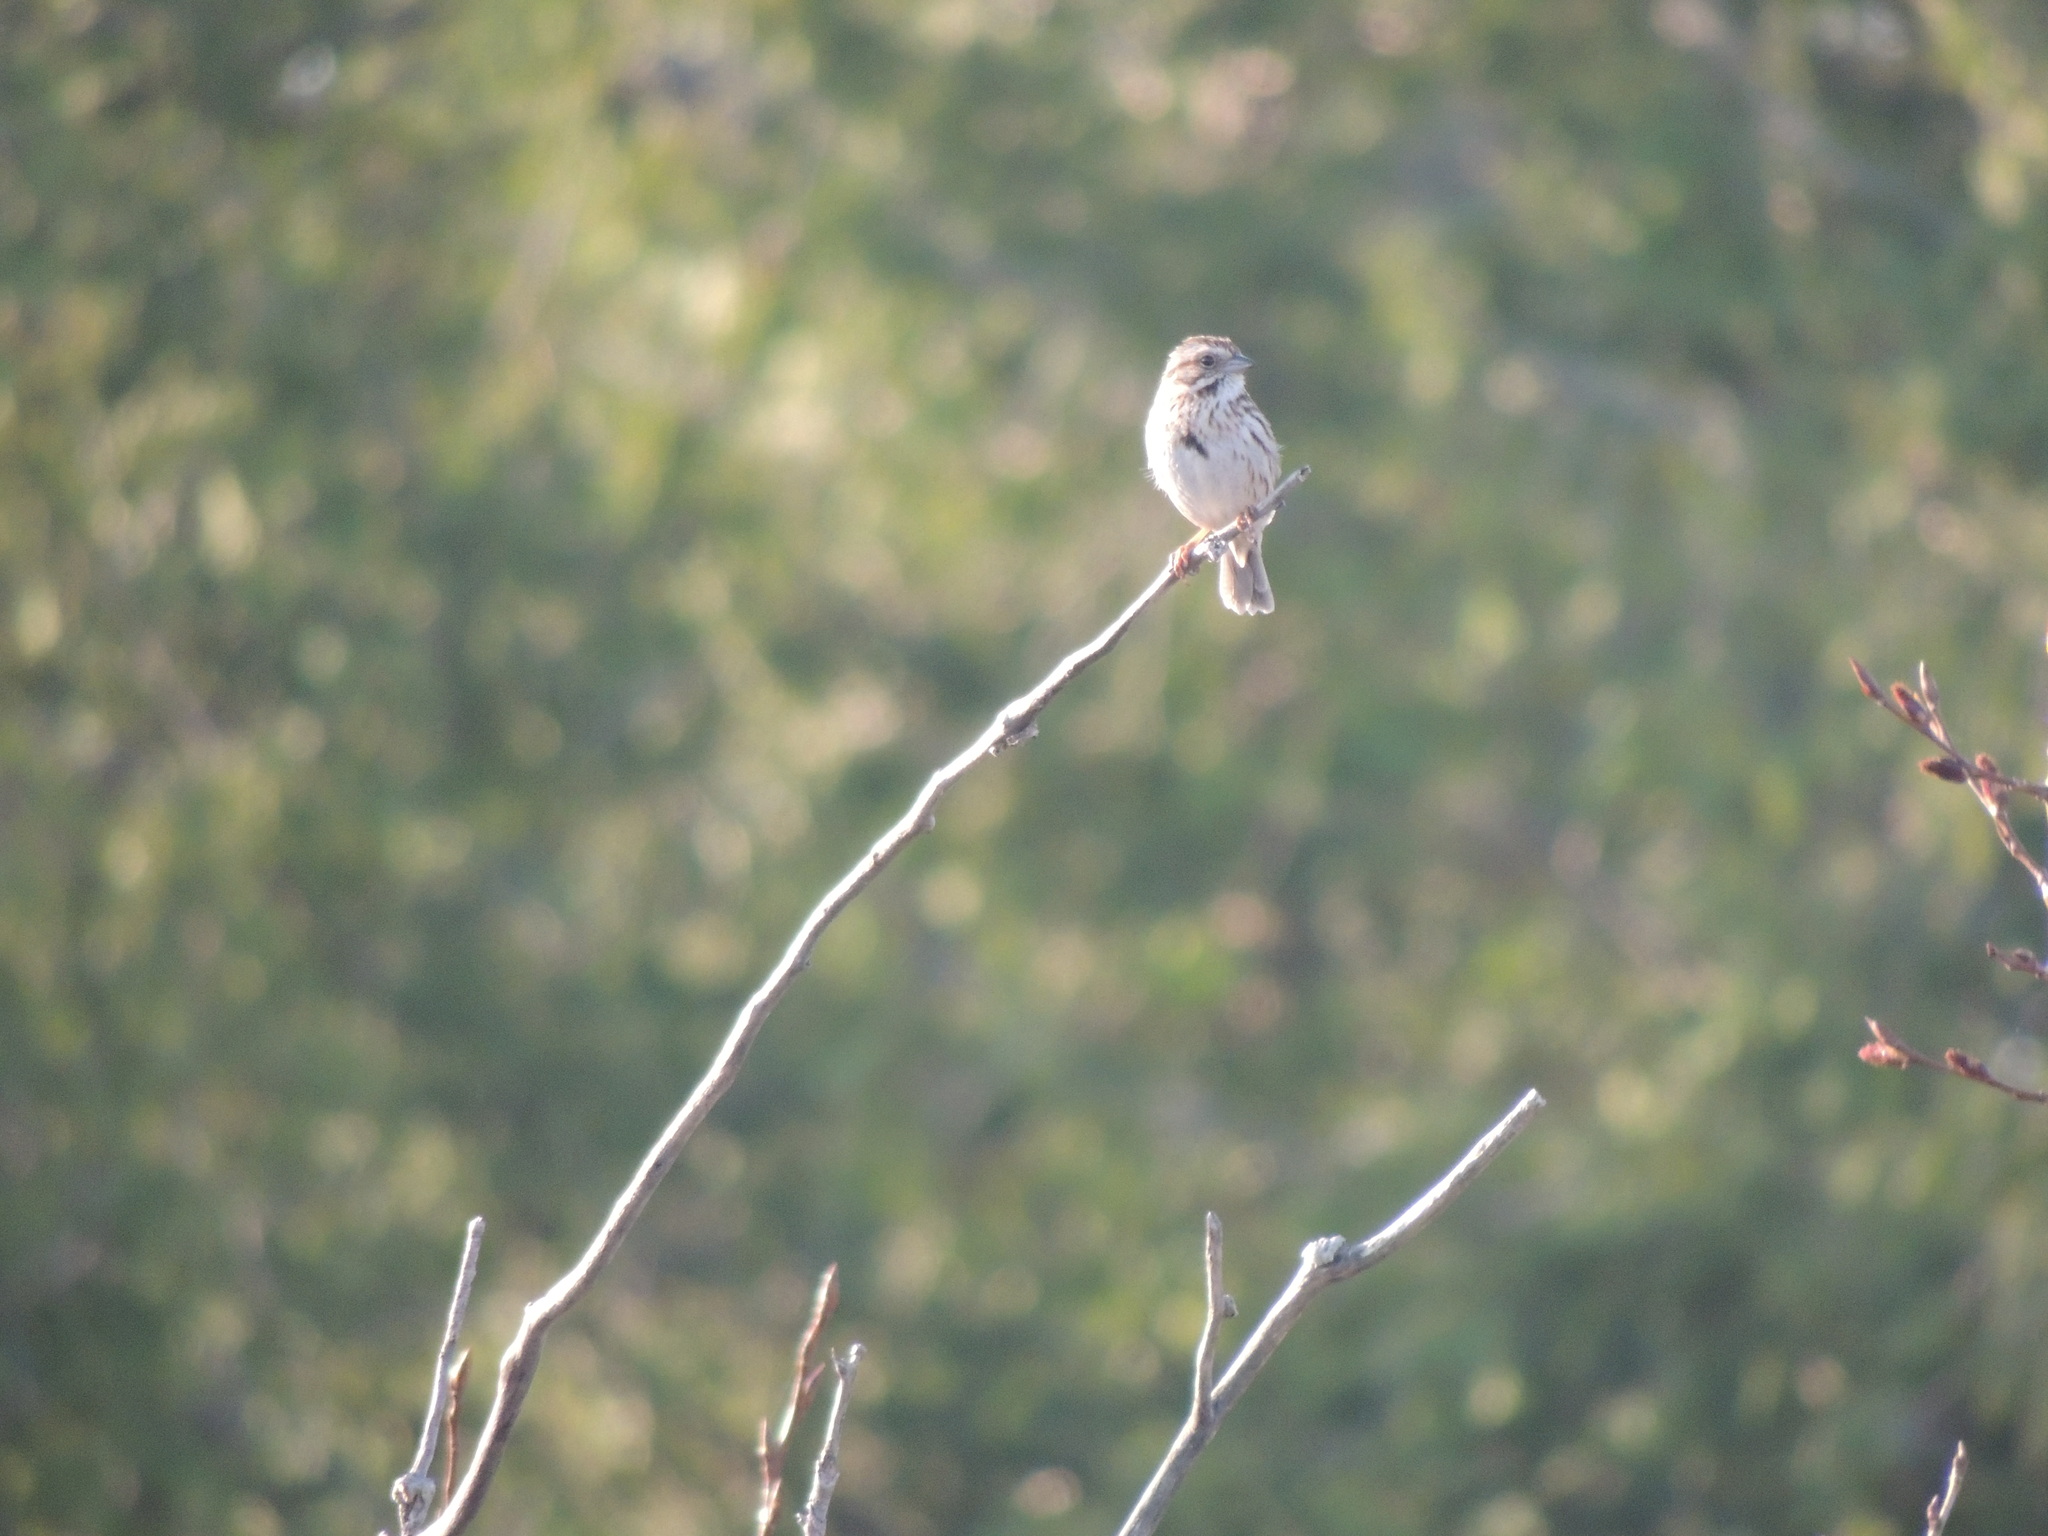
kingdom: Animalia
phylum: Chordata
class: Aves
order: Passeriformes
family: Passerellidae
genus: Melospiza
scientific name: Melospiza melodia
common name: Song sparrow
